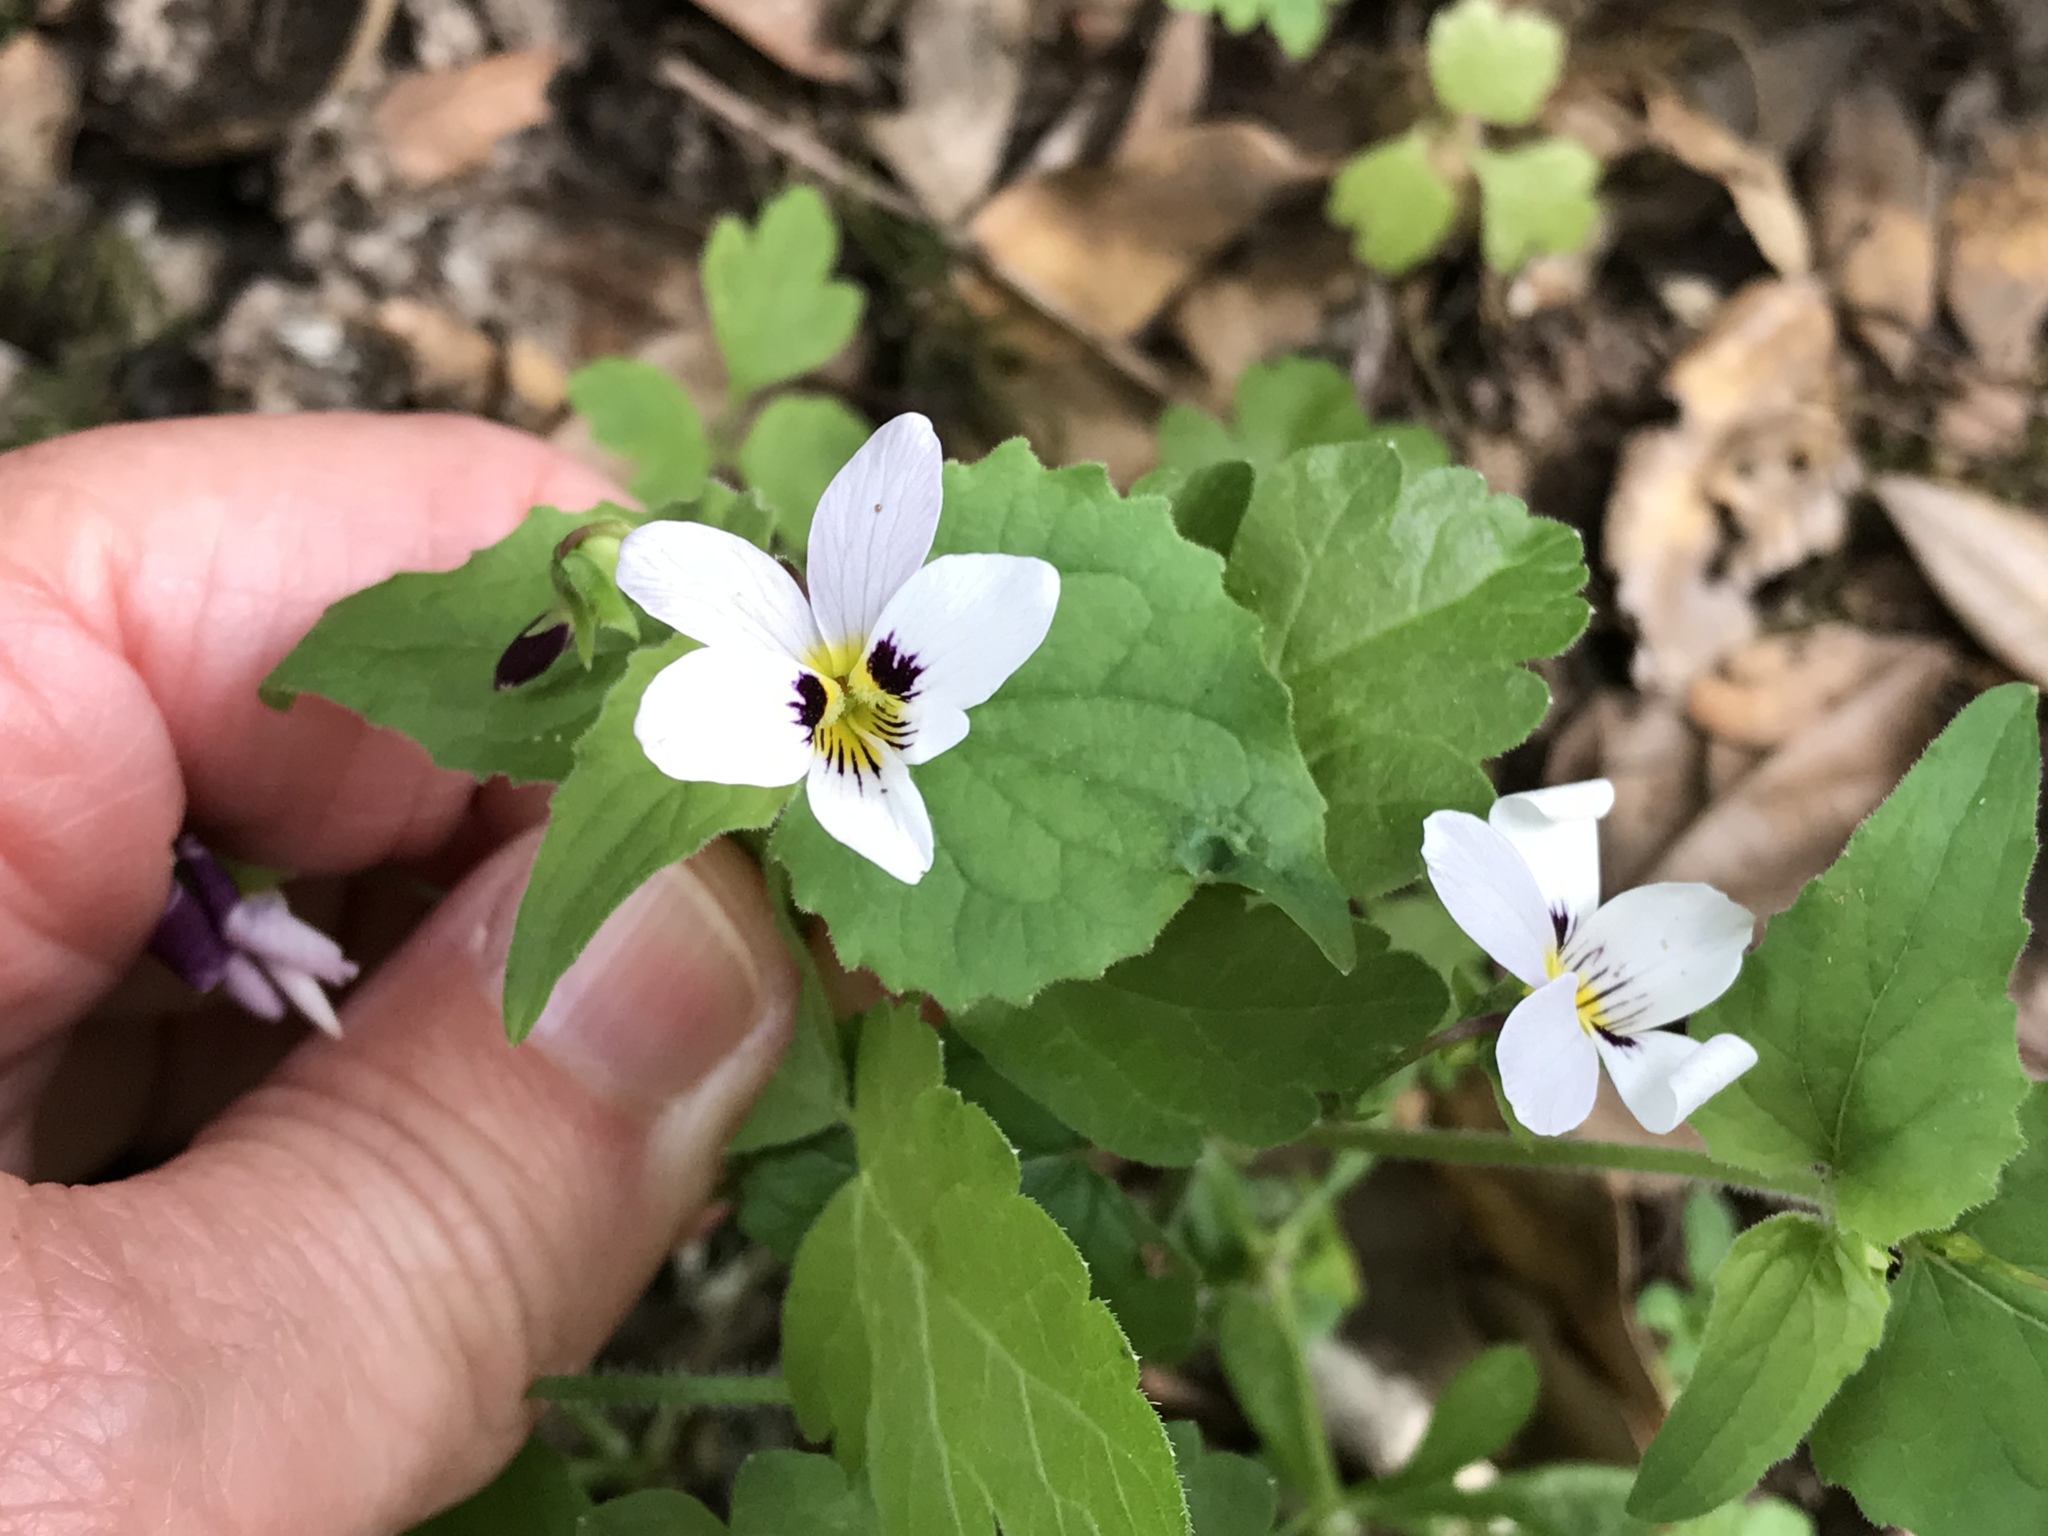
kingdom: Plantae
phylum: Tracheophyta
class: Magnoliopsida
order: Malpighiales
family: Violaceae
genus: Viola
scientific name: Viola ocellata
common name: Western heart's ease
